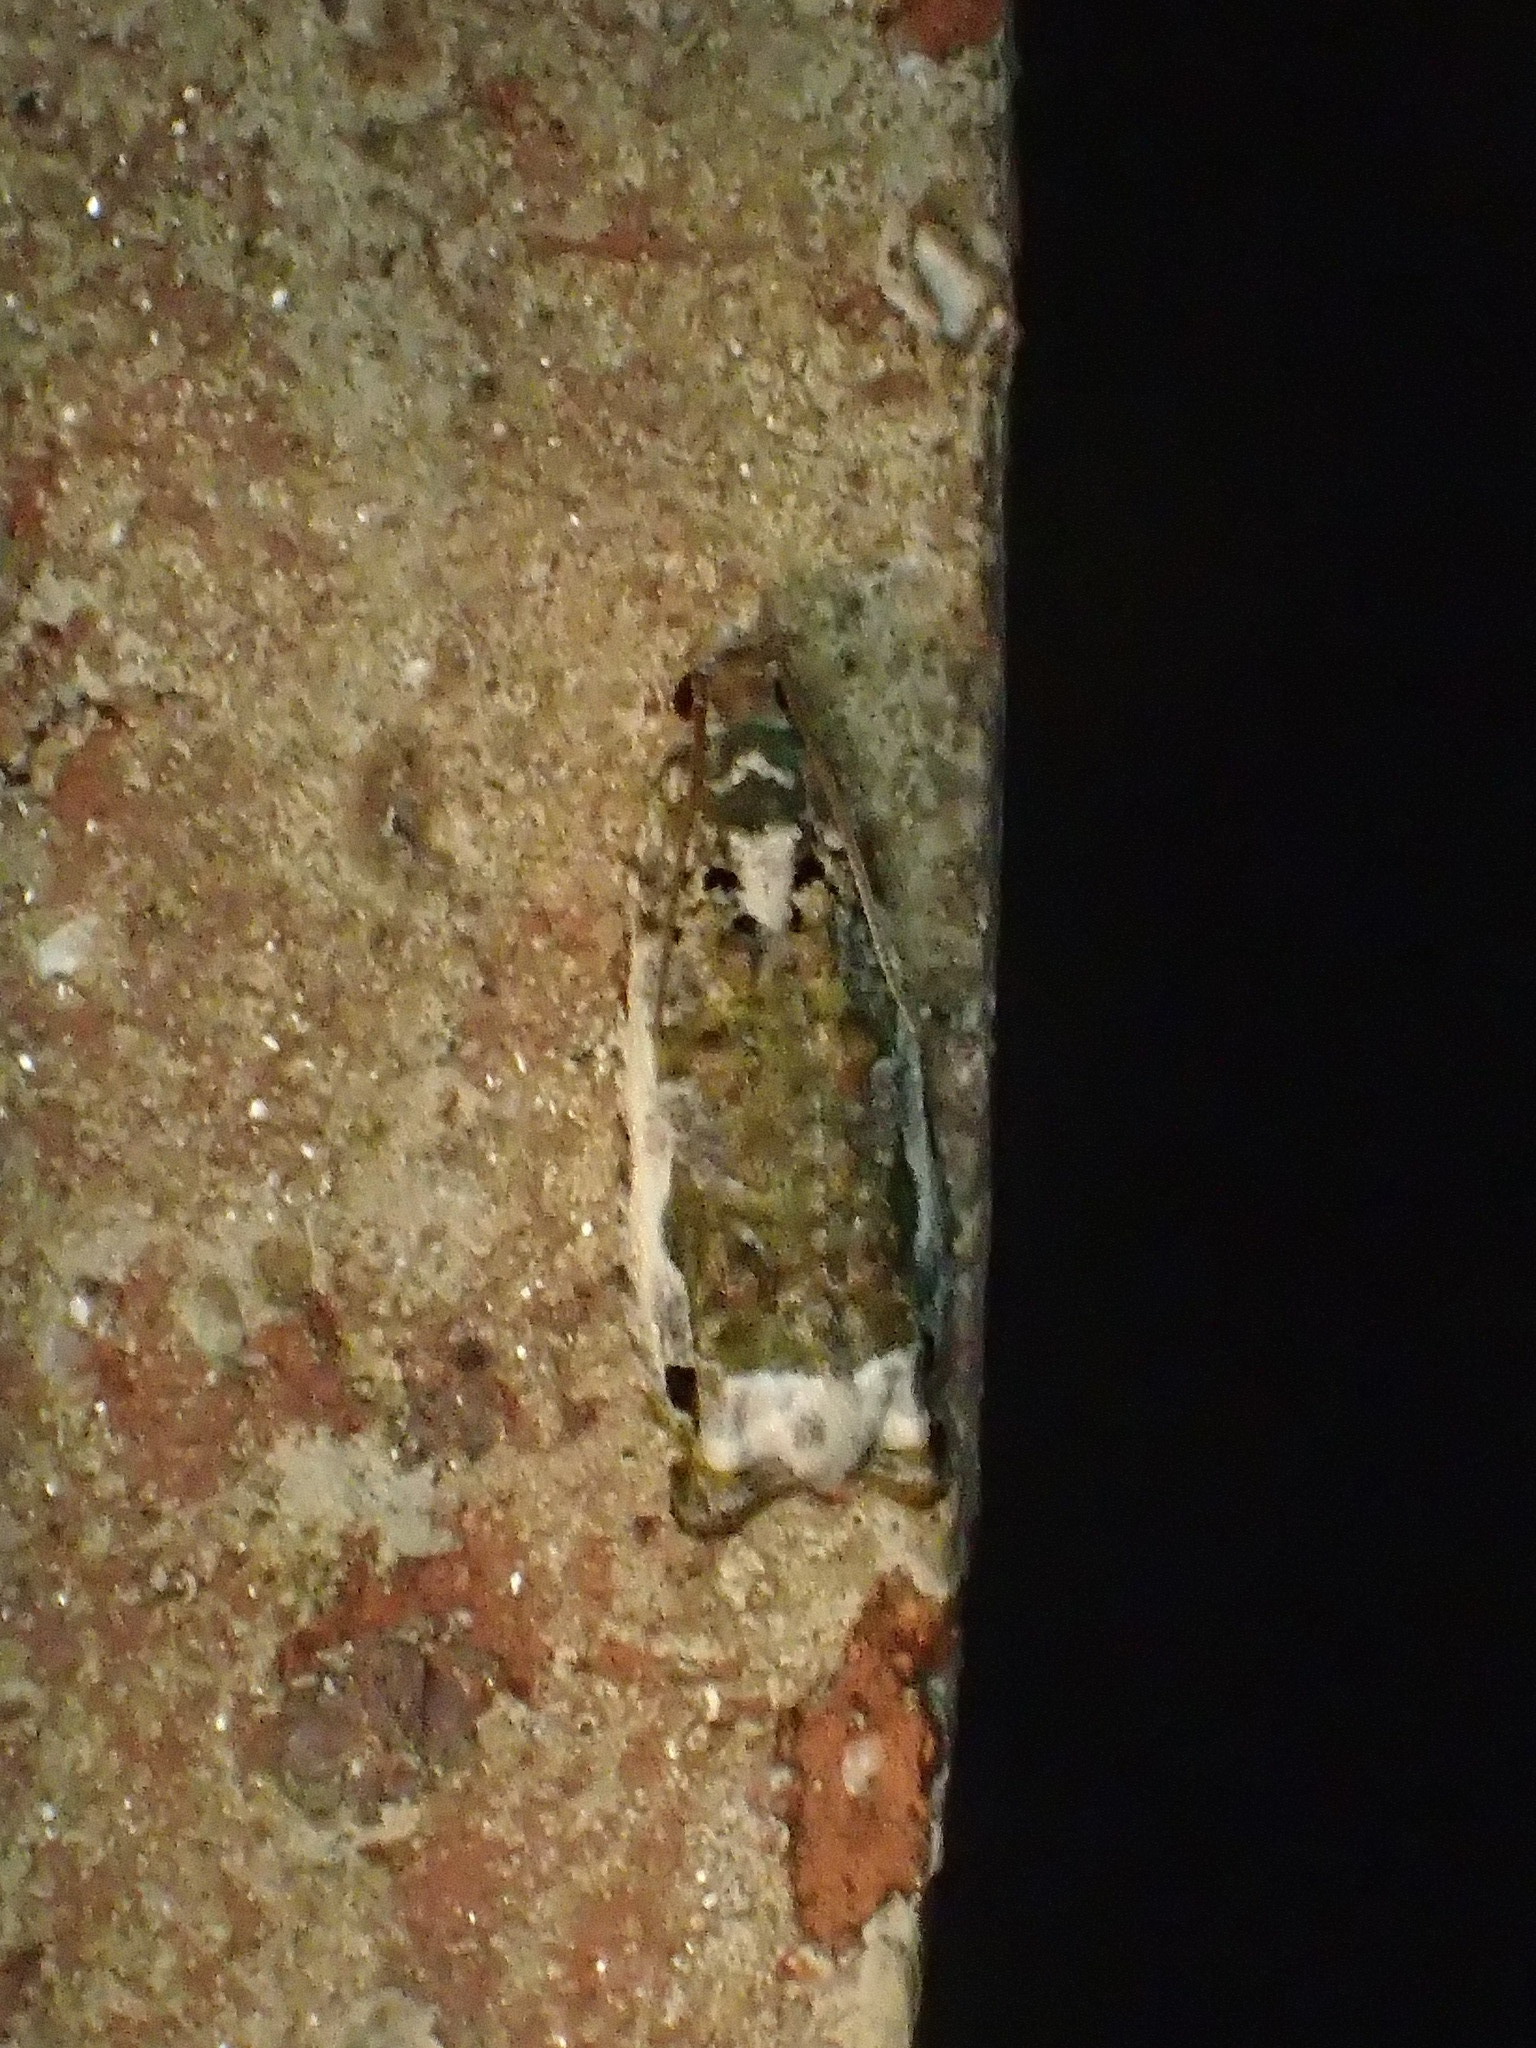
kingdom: Animalia
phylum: Arthropoda
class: Insecta
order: Lepidoptera
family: Tortricidae
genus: Proteoteras
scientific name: Proteoteras naracana
